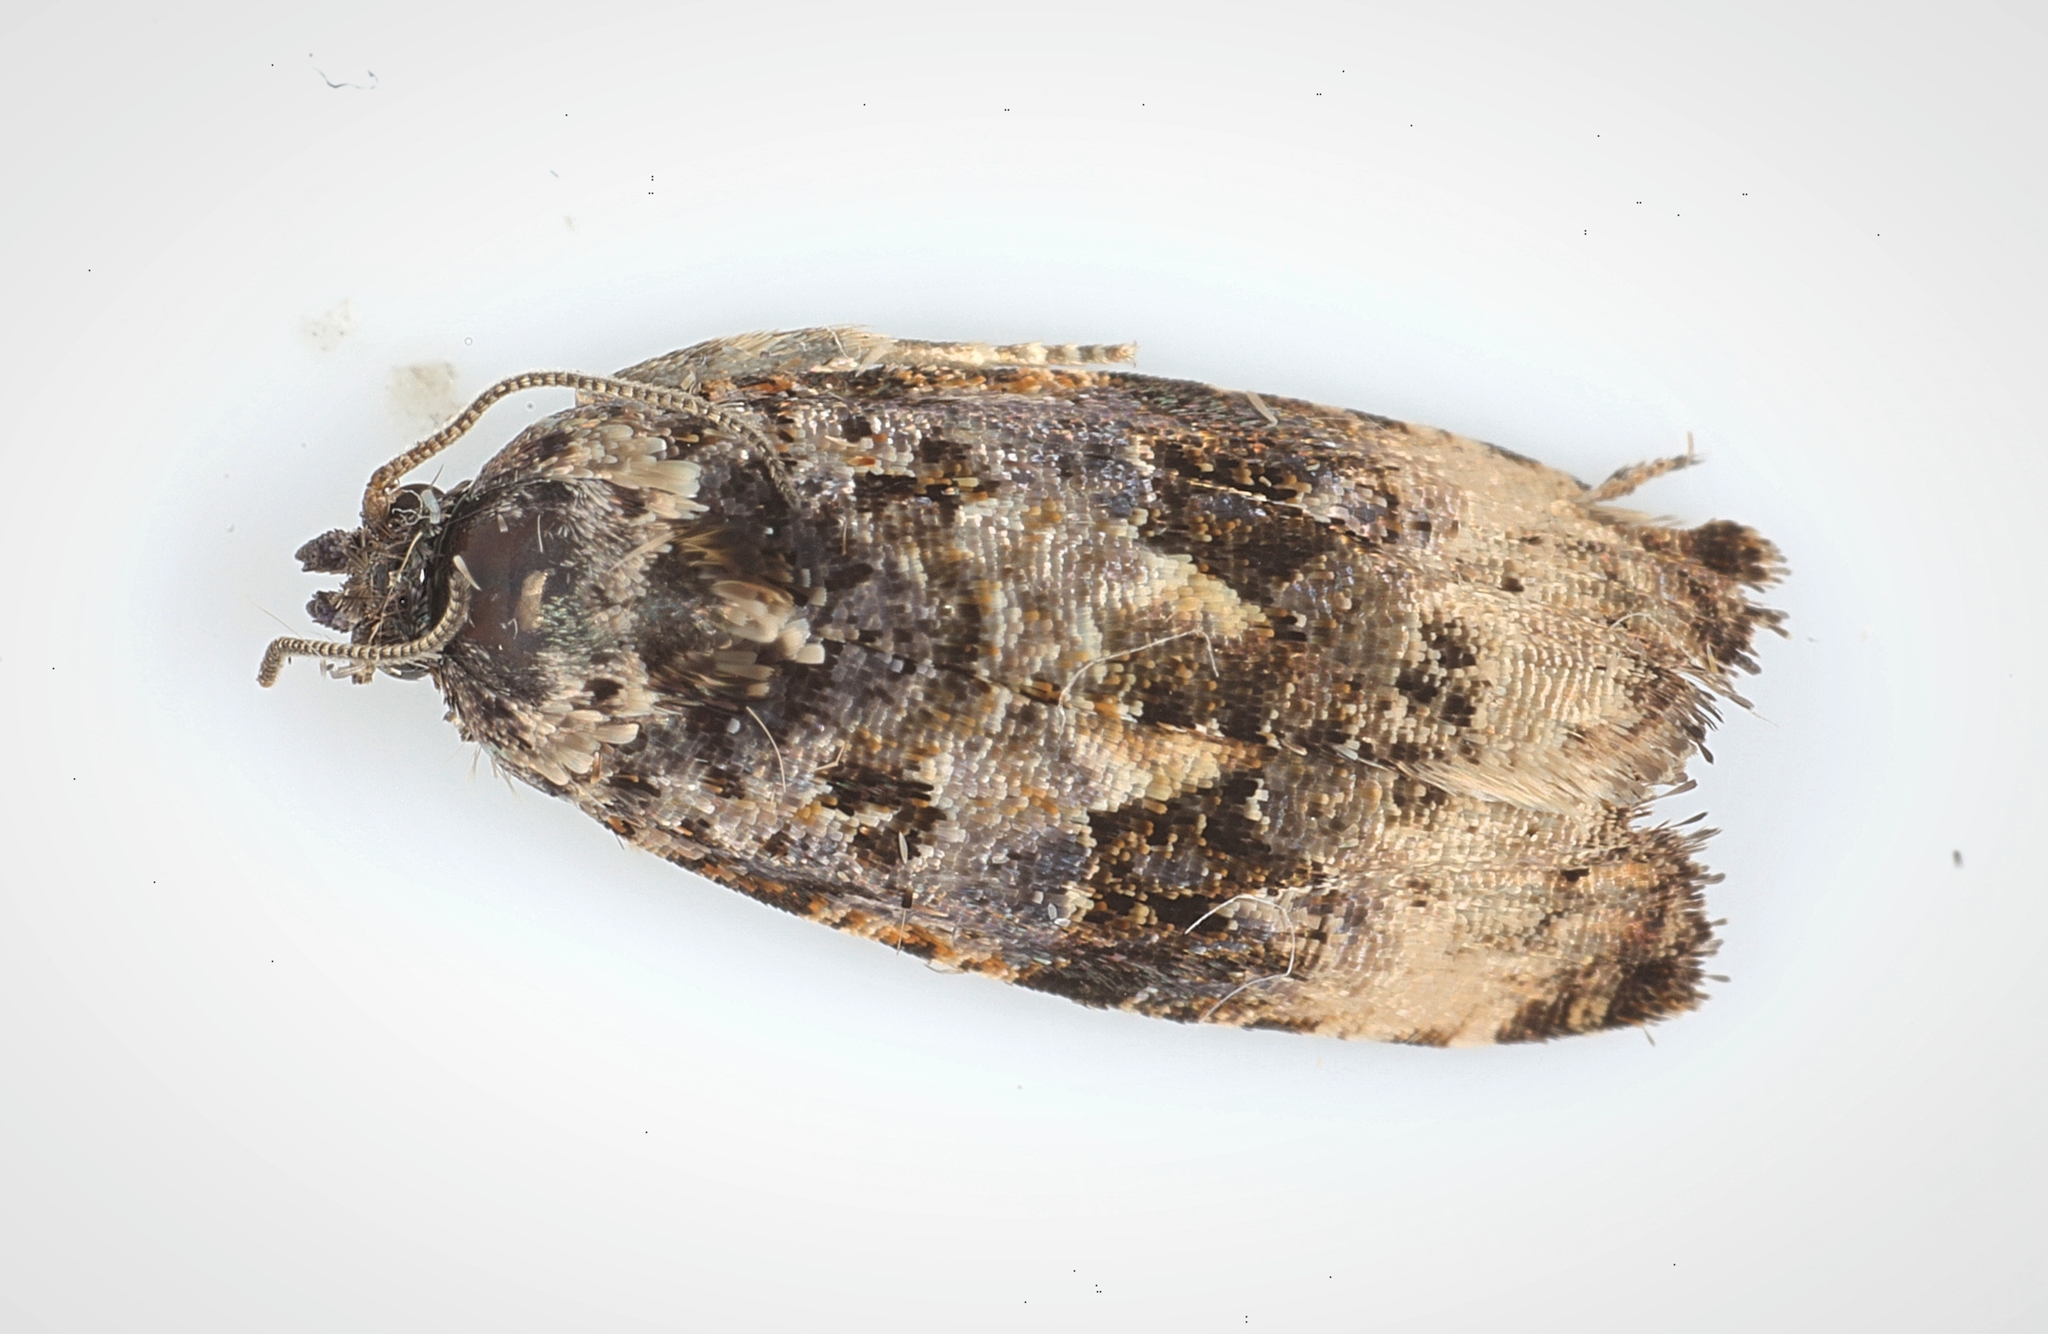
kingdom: Animalia
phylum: Arthropoda
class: Insecta
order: Lepidoptera
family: Tortricidae
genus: Endothenia
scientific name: Endothenia gentianaeana
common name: Teasel marble
